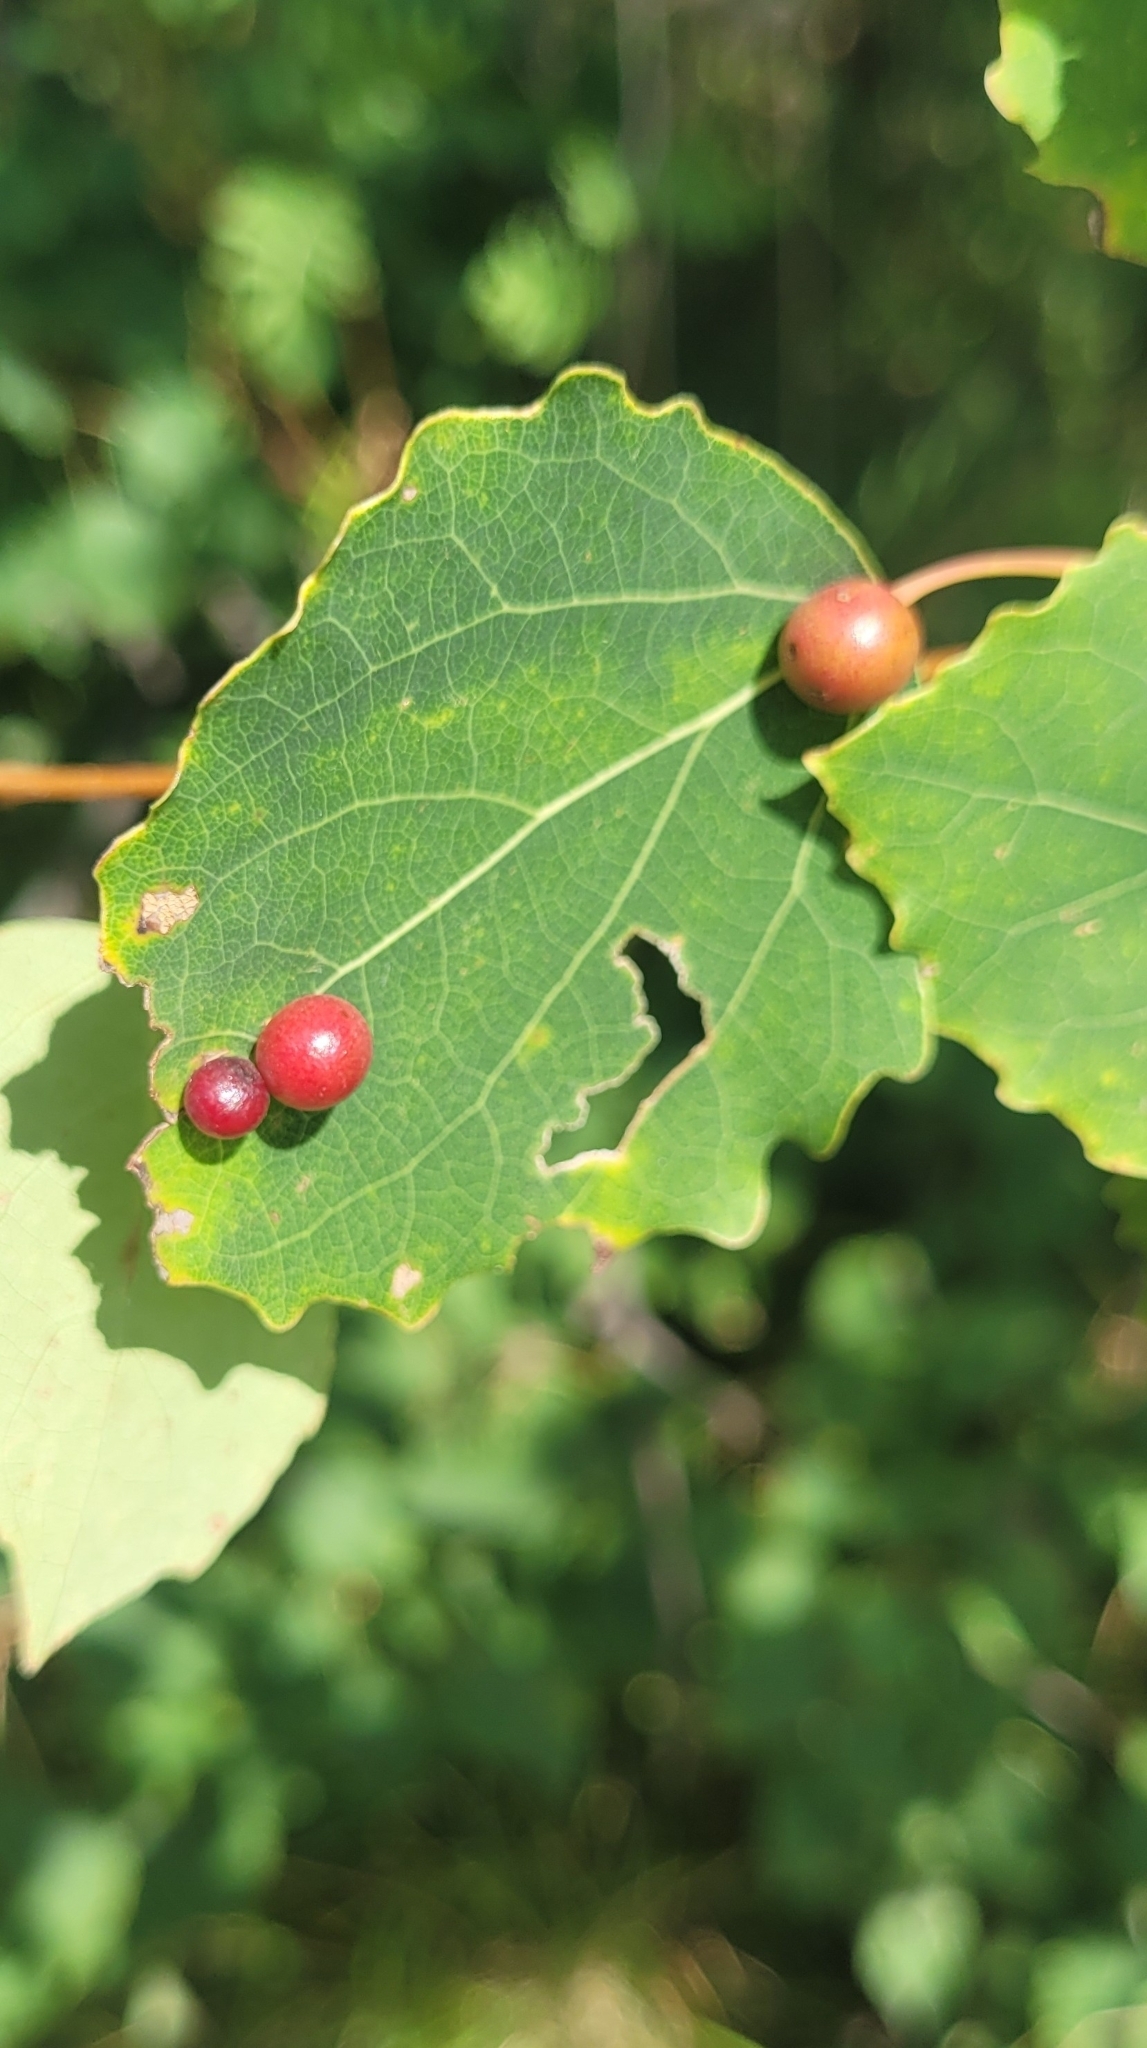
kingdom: Animalia
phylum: Arthropoda
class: Insecta
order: Diptera
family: Cecidomyiidae
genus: Harmandiola
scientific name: Harmandiola tremulae
